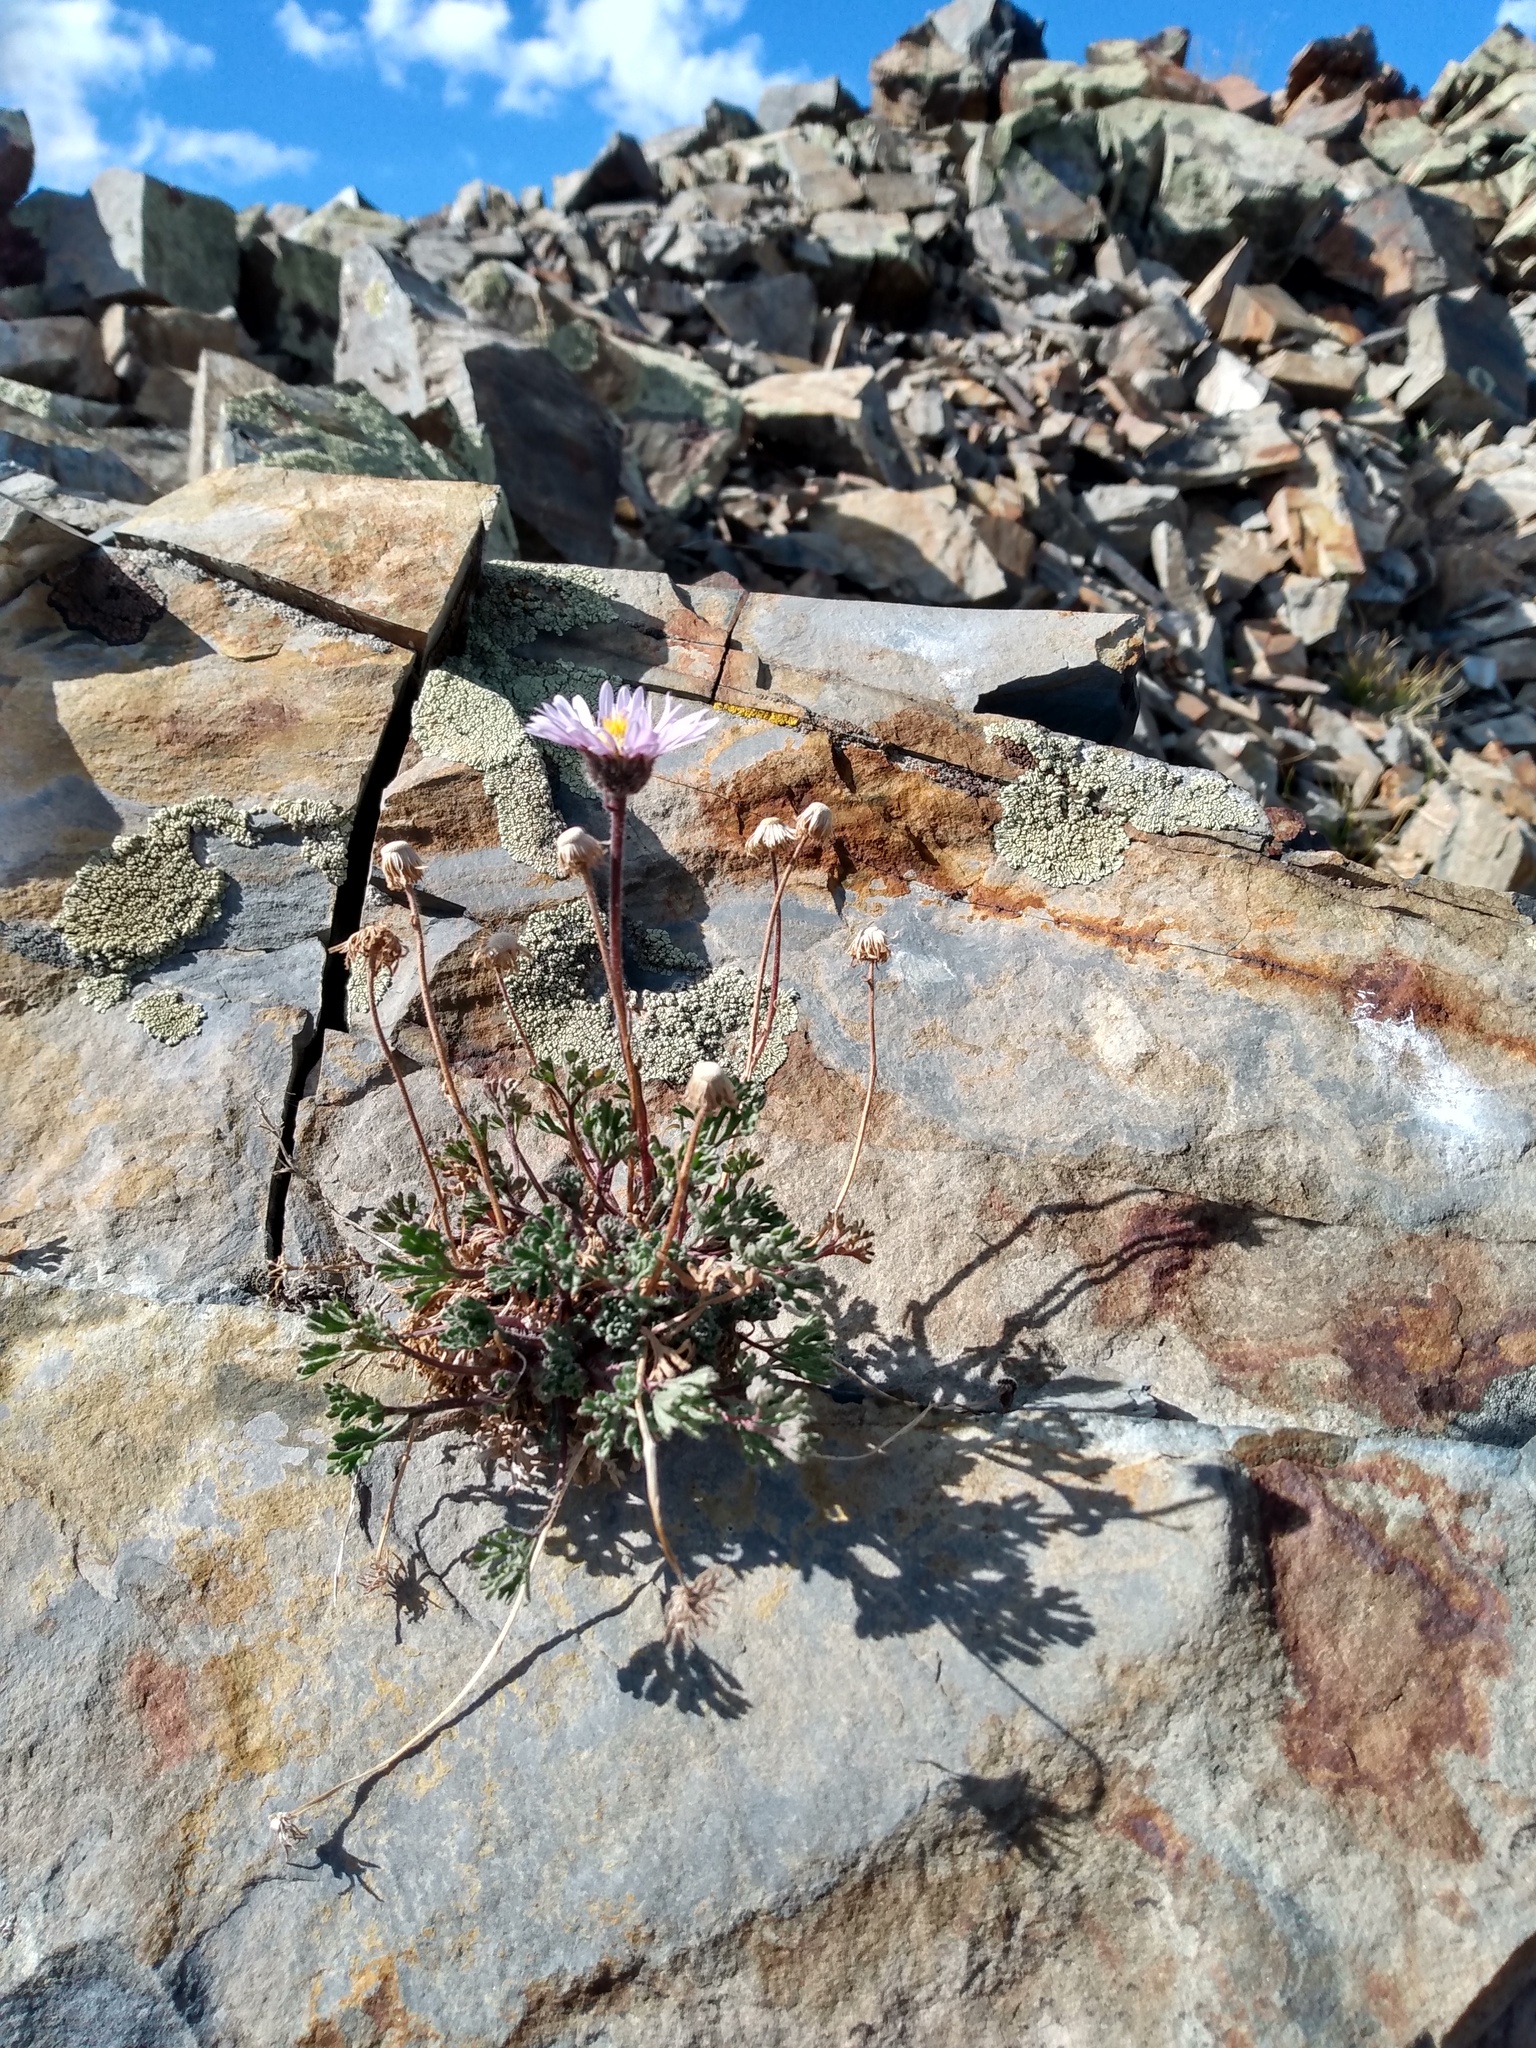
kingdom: Plantae
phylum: Tracheophyta
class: Magnoliopsida
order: Asterales
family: Asteraceae
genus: Erigeron
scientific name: Erigeron compositus
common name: Dwarf mountain fleabane
